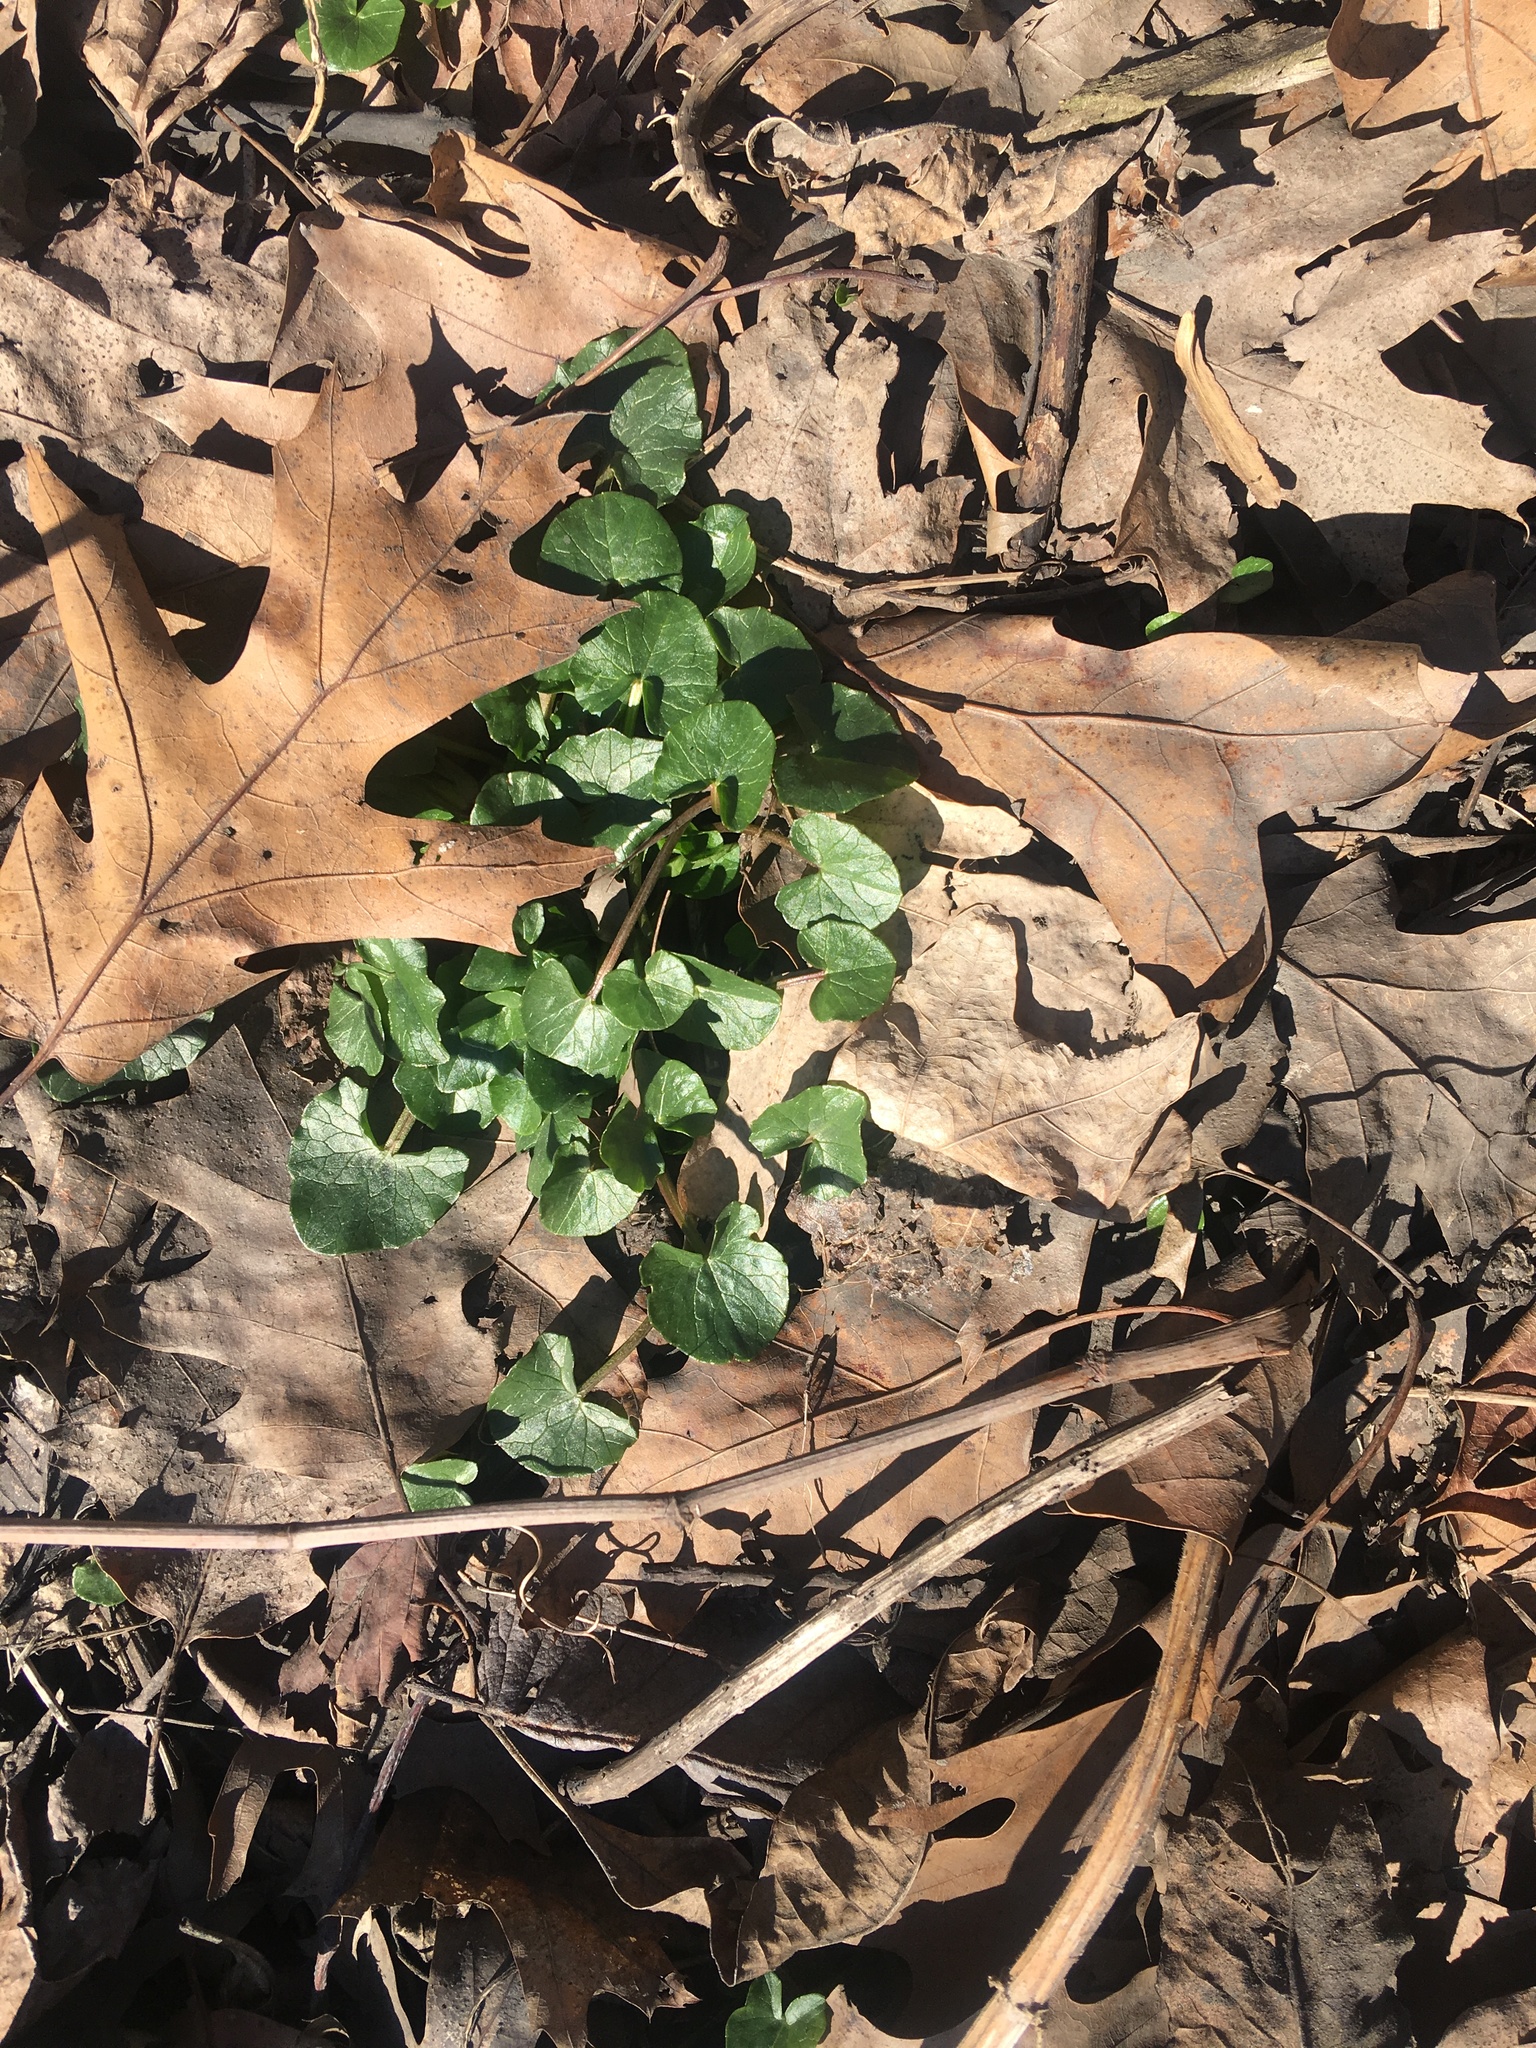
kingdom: Plantae
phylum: Tracheophyta
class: Magnoliopsida
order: Ranunculales
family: Ranunculaceae
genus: Ficaria
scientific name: Ficaria verna
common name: Lesser celandine
